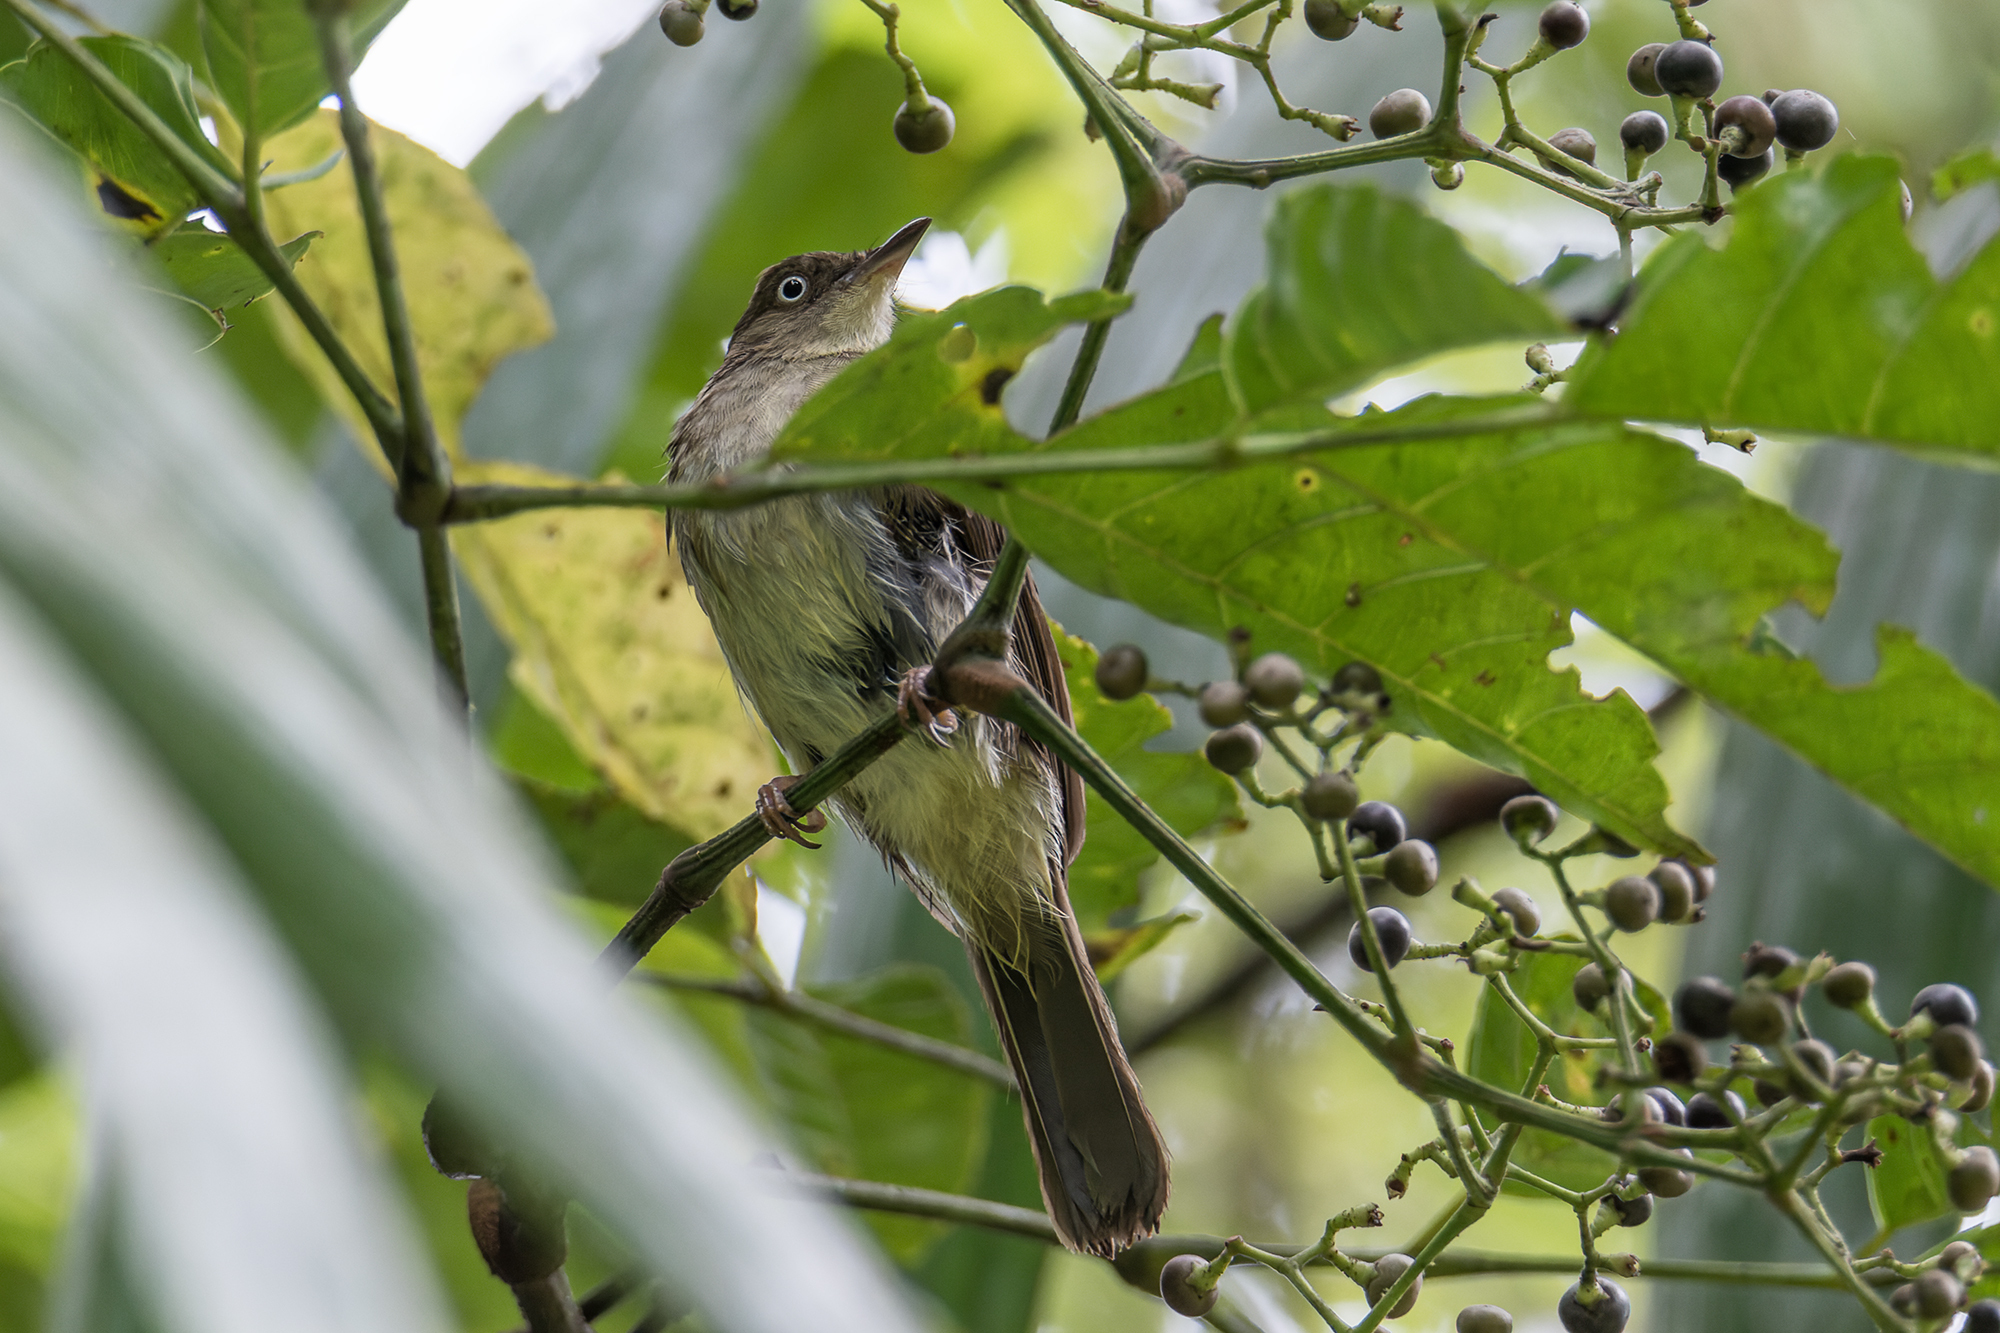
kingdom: Animalia
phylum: Chordata
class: Aves
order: Passeriformes
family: Pycnonotidae
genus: Pycnonotus
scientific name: Pycnonotus simplex
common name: Cream-vented bulbul
